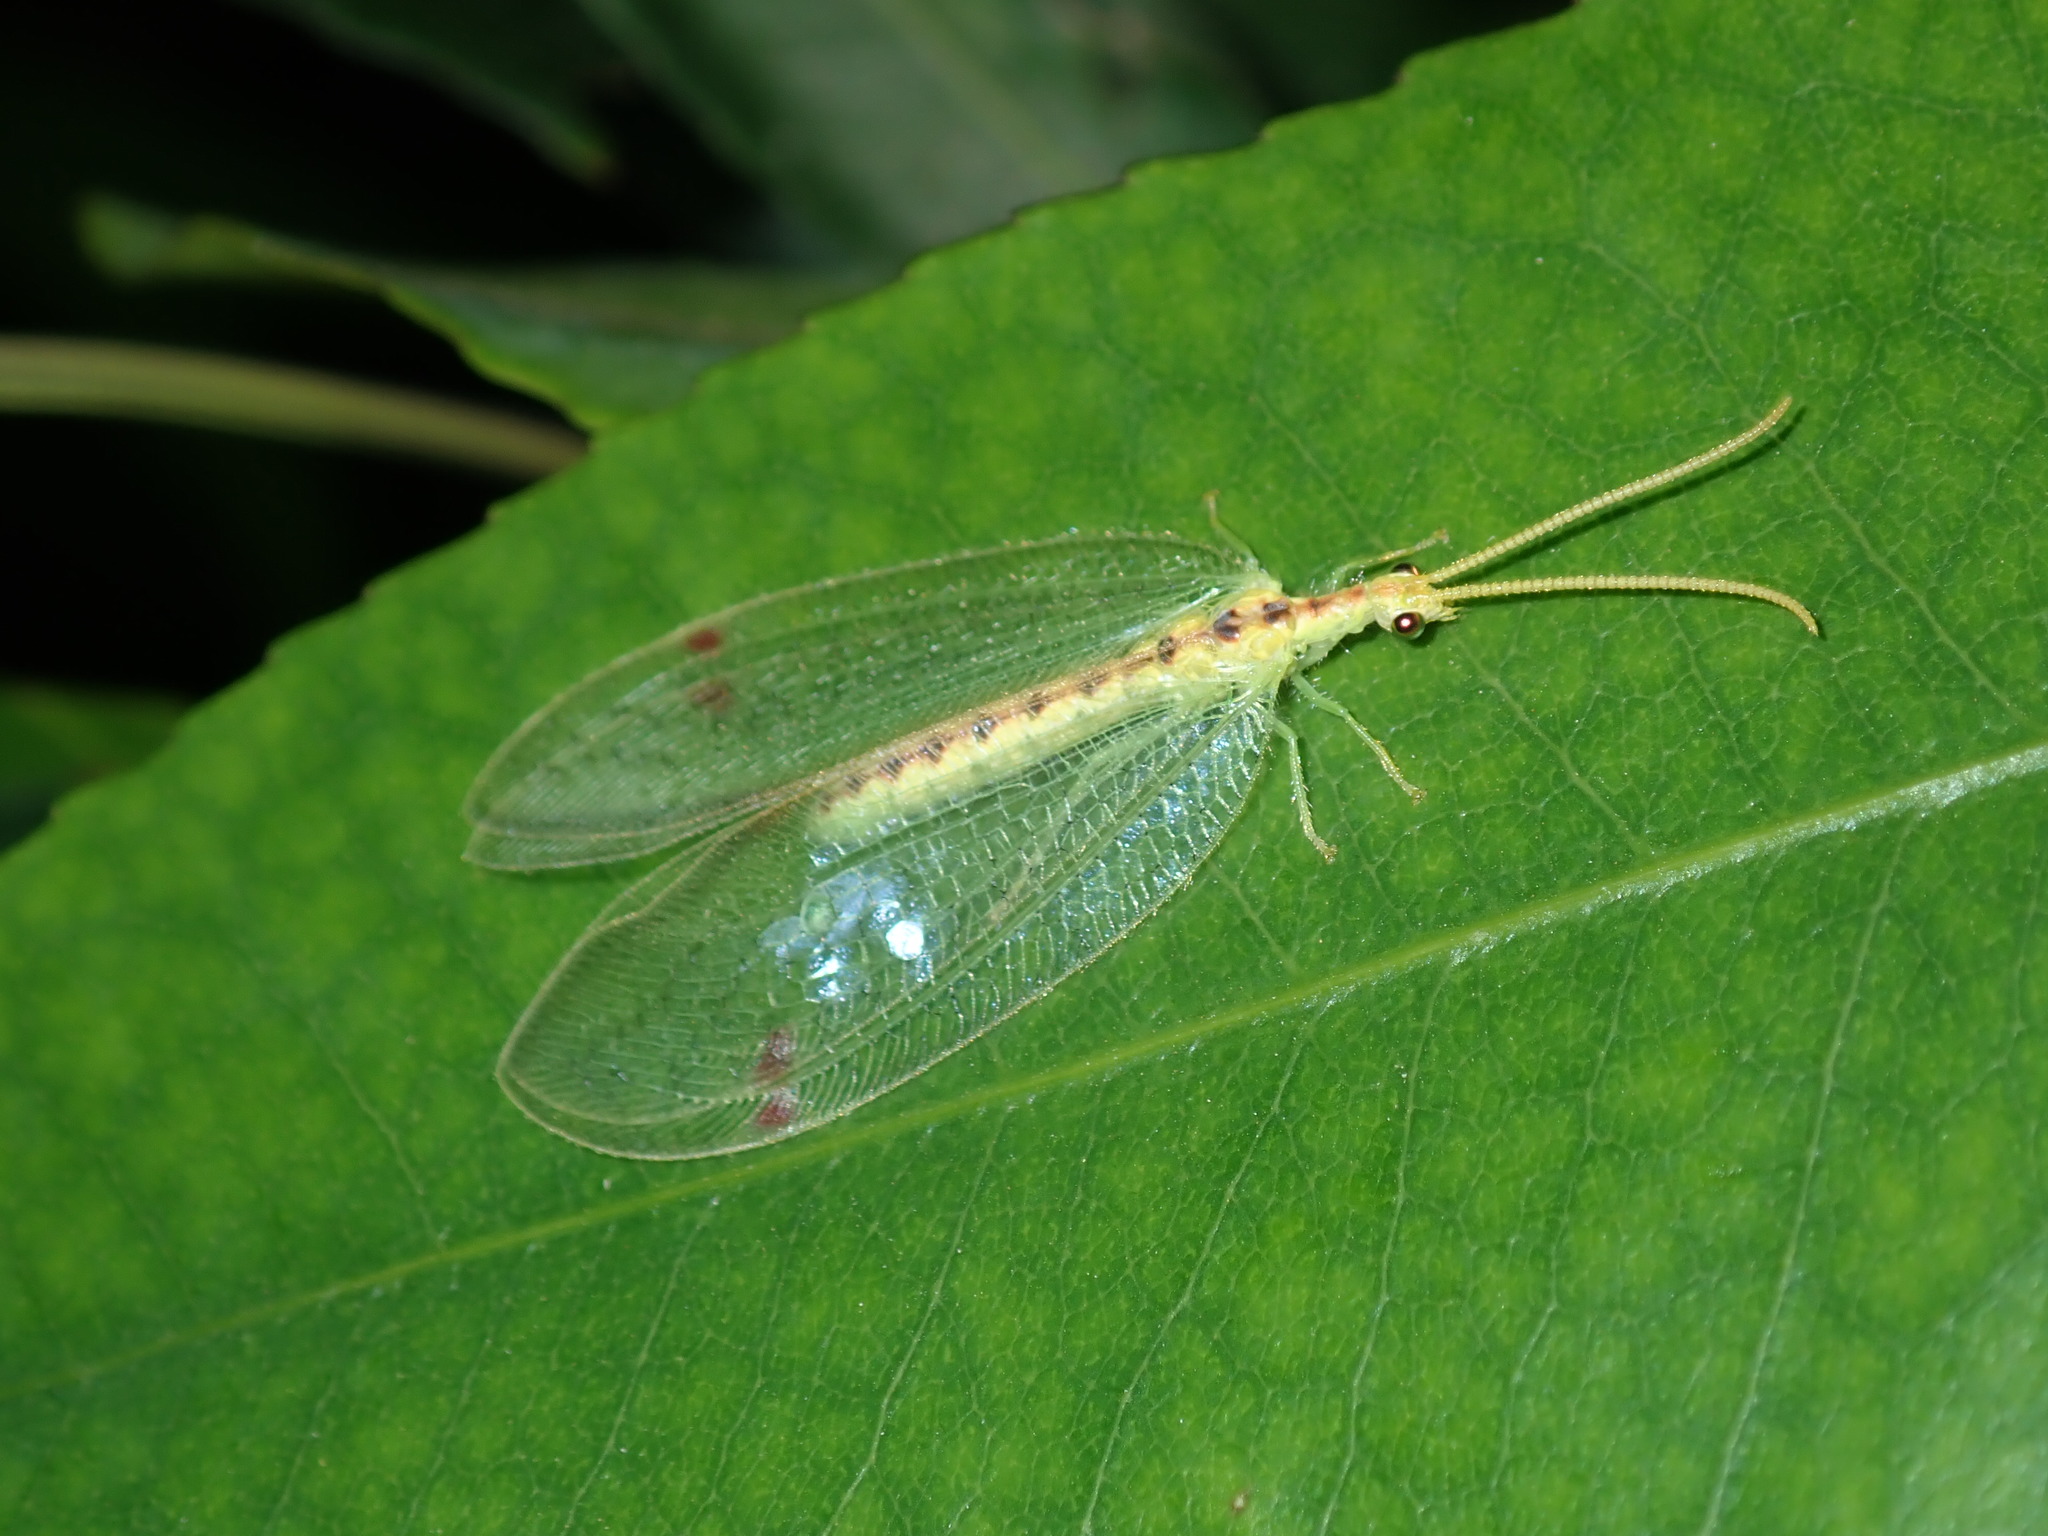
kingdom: Animalia
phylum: Arthropoda
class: Insecta
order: Neuroptera
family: Nymphidae
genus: Norfolius
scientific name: Norfolius howensis
